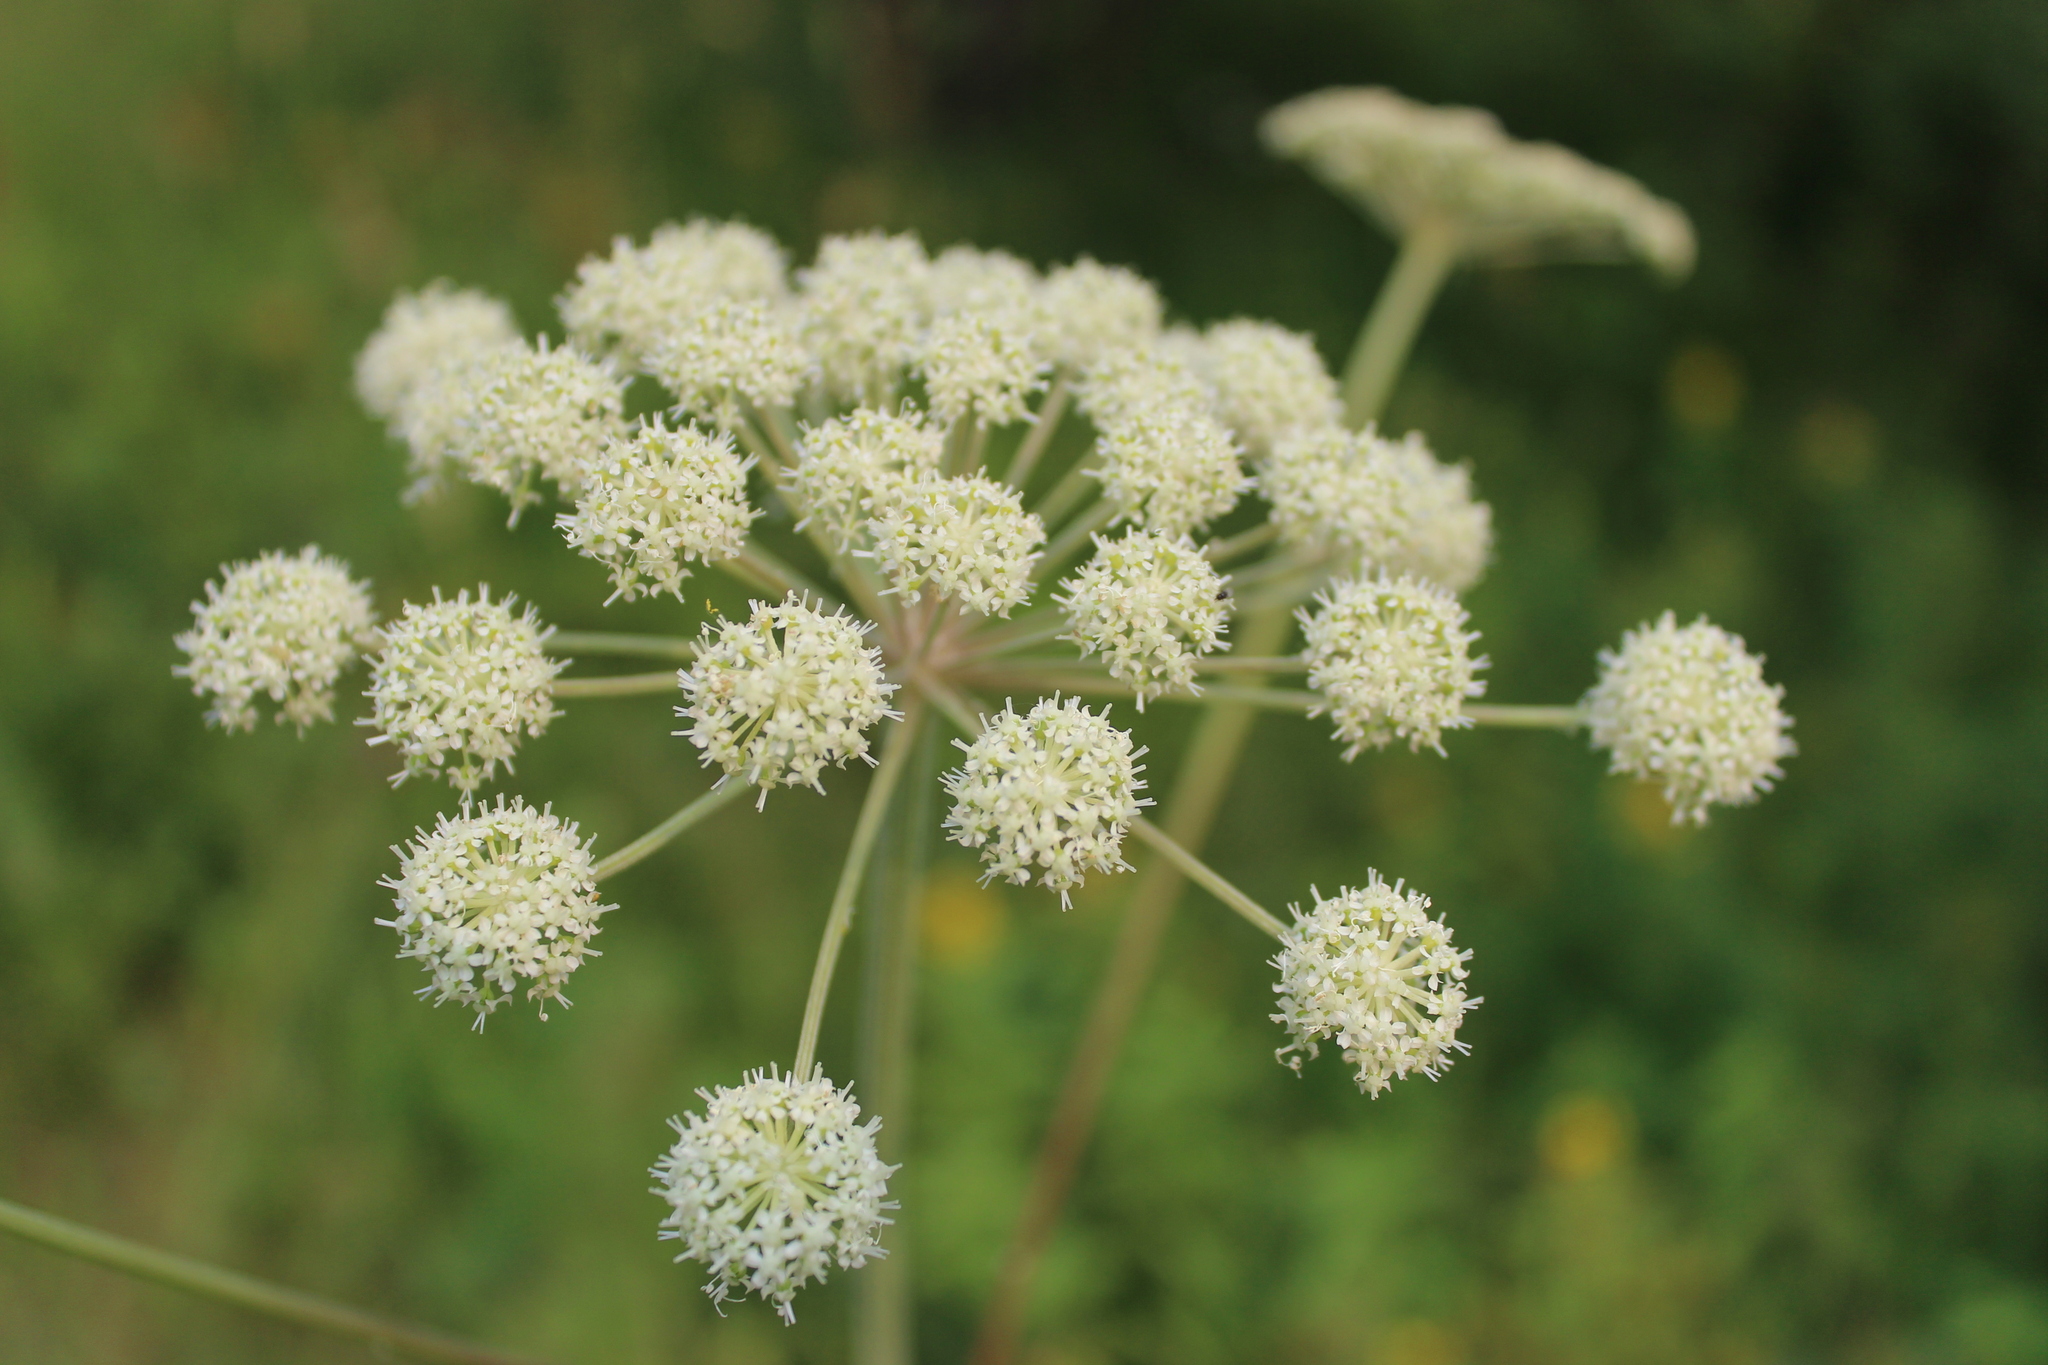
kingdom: Plantae
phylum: Tracheophyta
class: Magnoliopsida
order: Apiales
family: Apiaceae
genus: Angelica
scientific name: Angelica sylvestris
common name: Wild angelica
